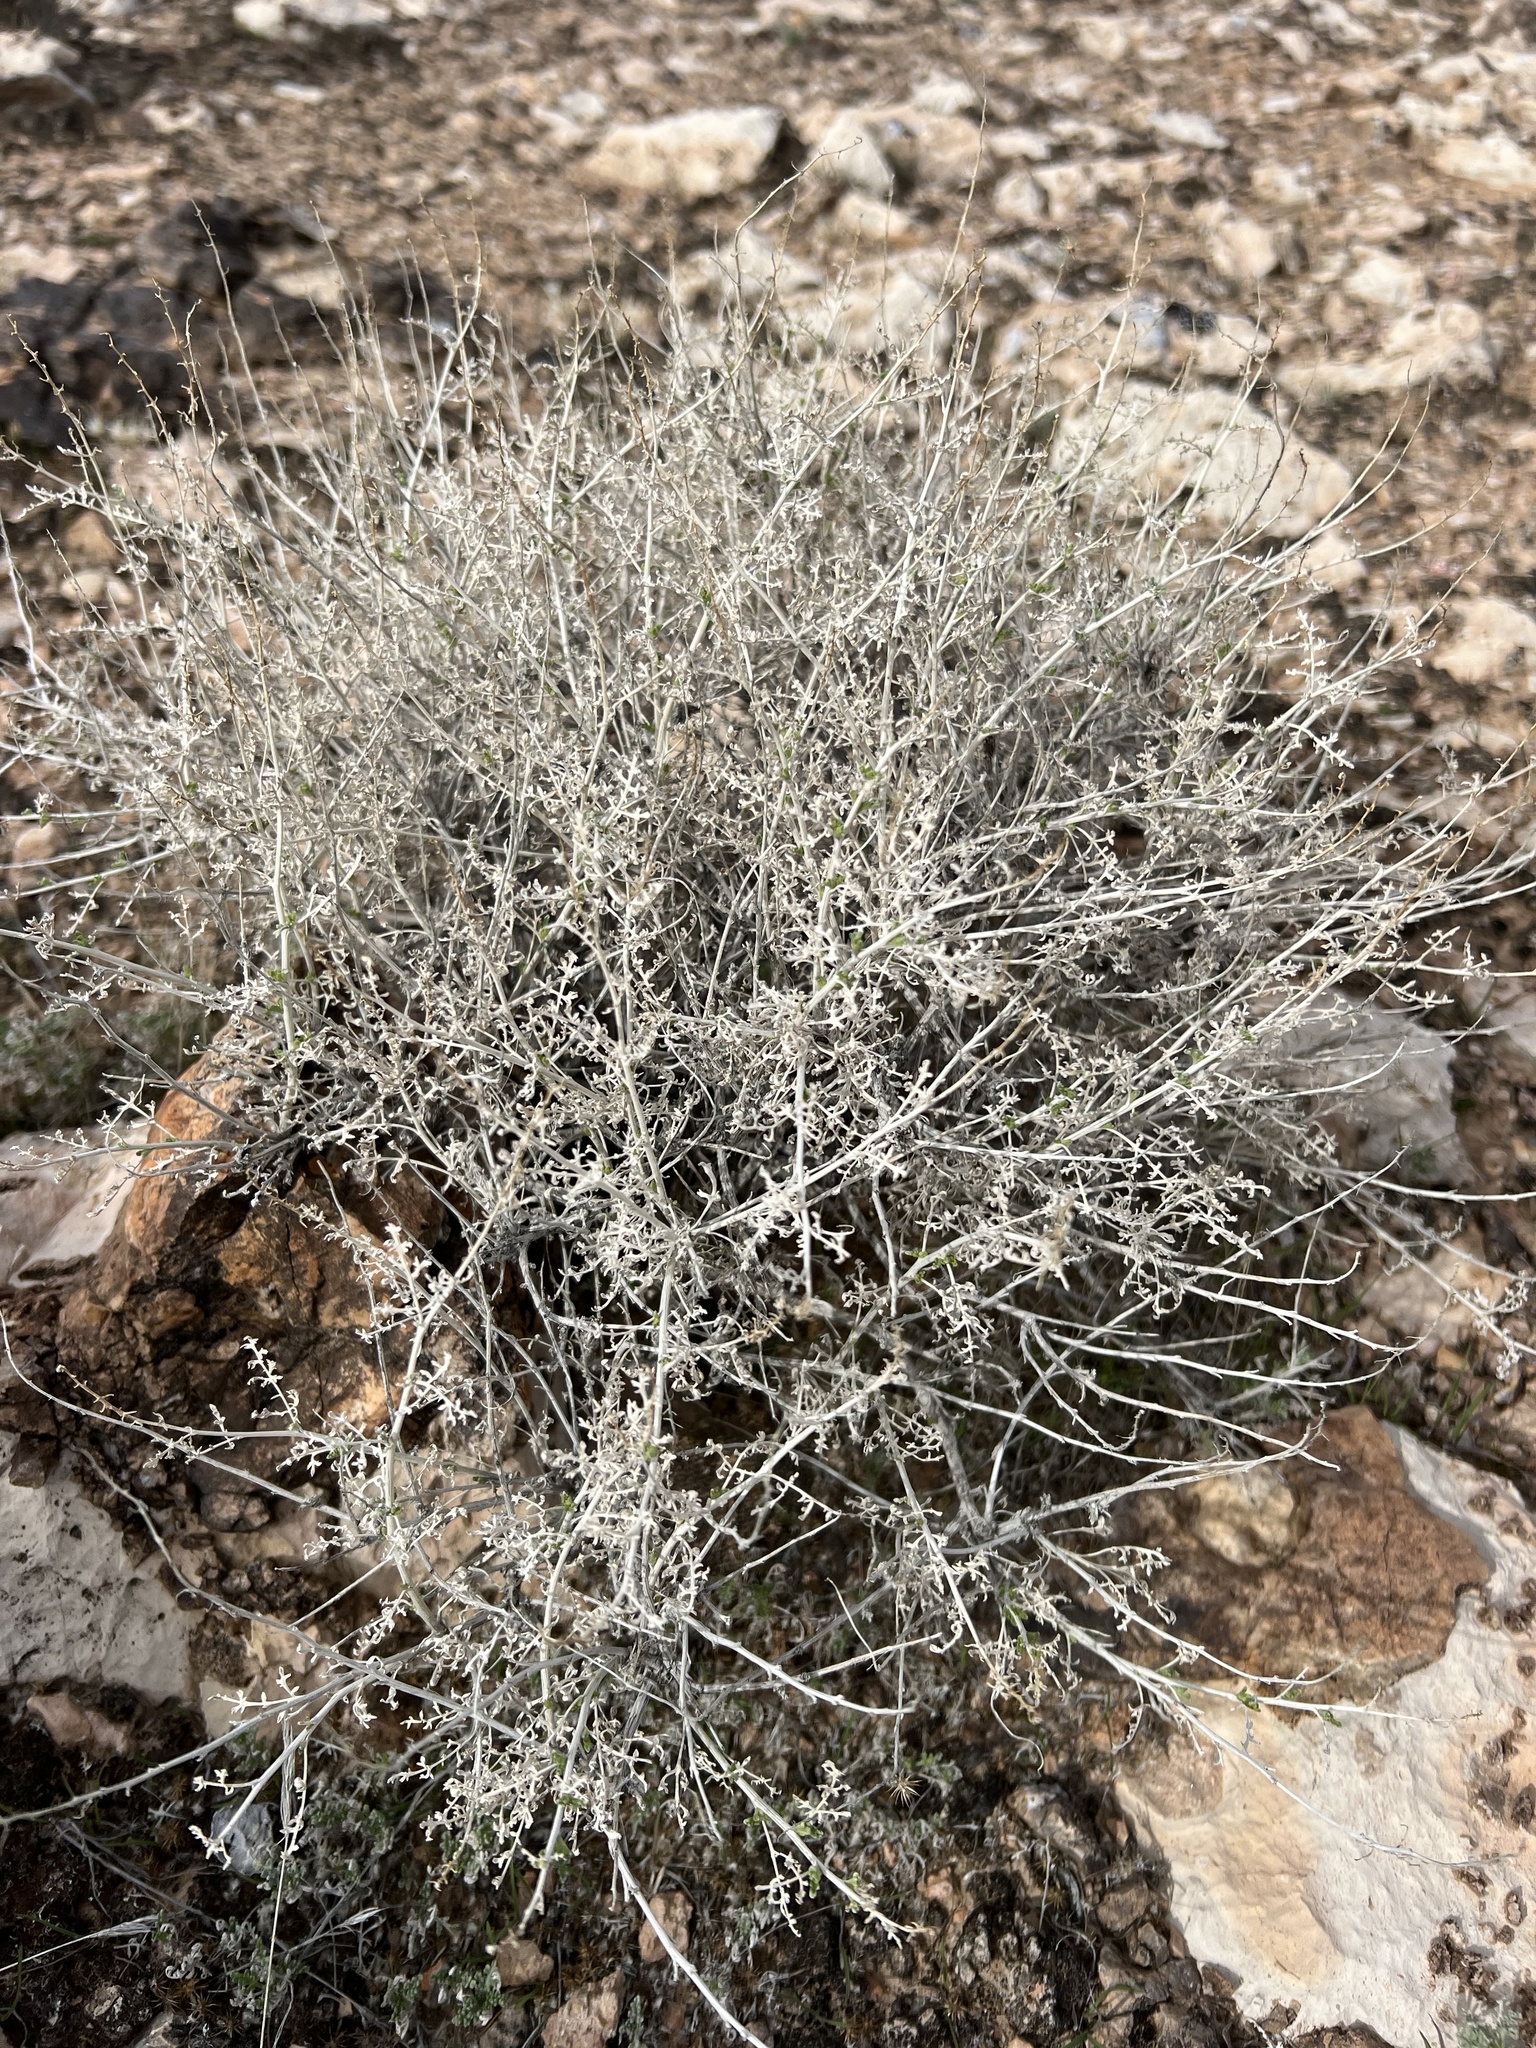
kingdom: Plantae
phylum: Tracheophyta
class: Magnoliopsida
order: Asterales
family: Asteraceae
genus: Ambrosia
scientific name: Ambrosia dumosa
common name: Bur-sage
